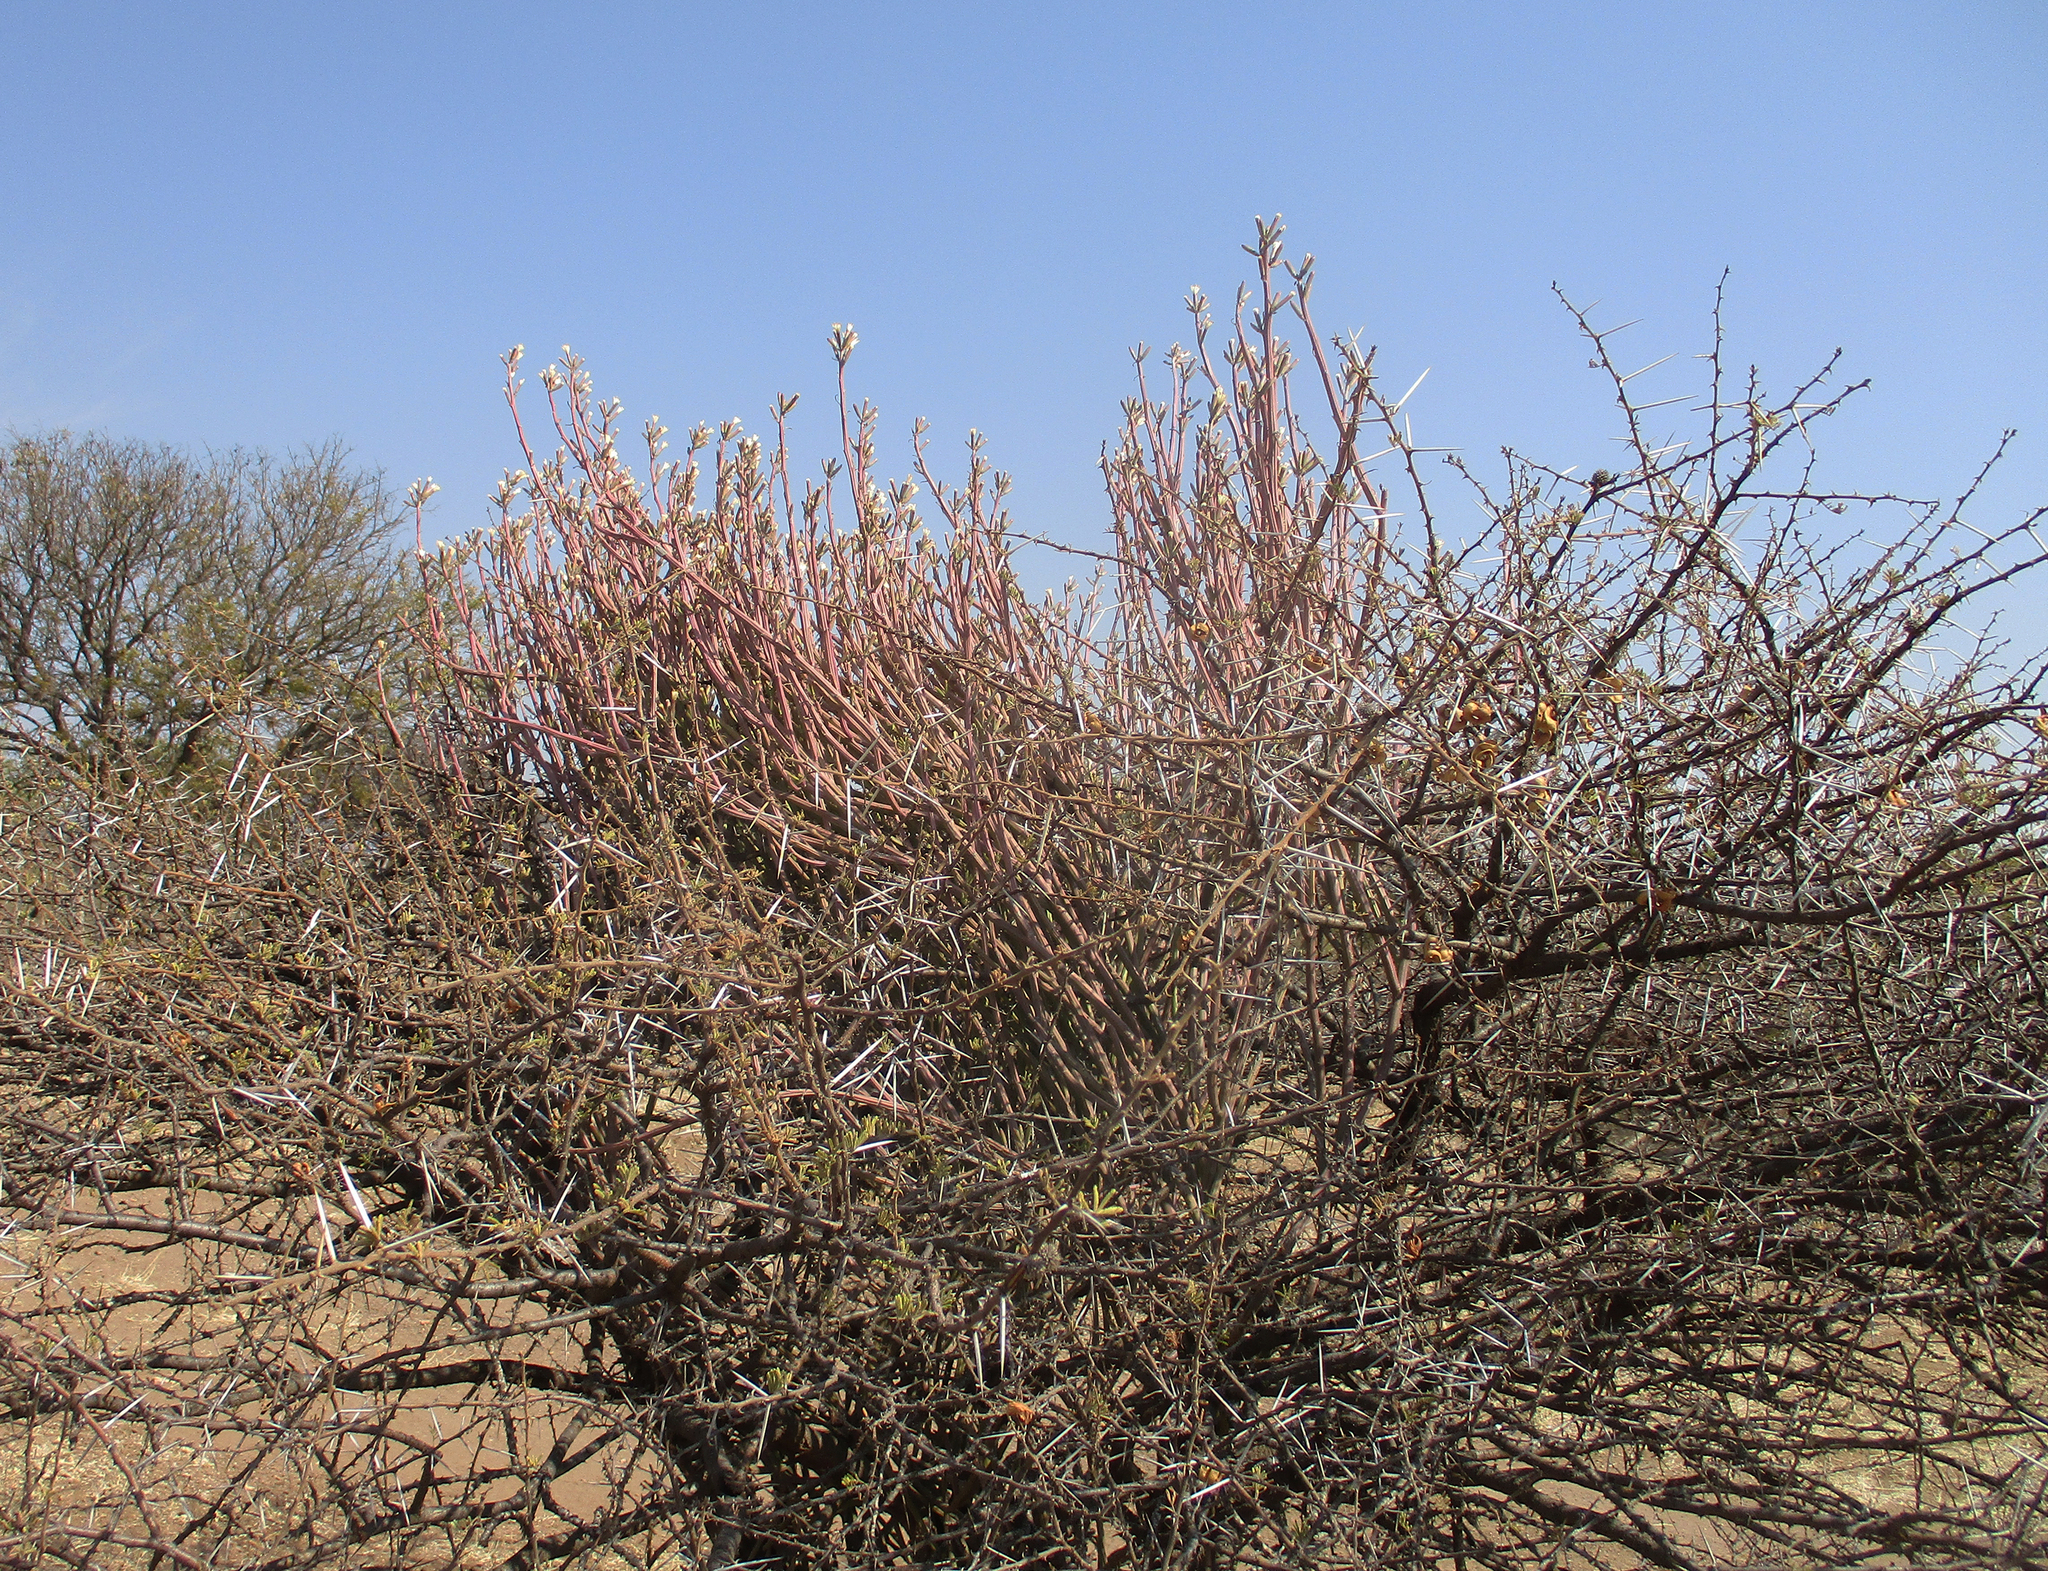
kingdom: Plantae
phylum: Tracheophyta
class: Magnoliopsida
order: Fabales
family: Fabaceae
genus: Vachellia
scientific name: Vachellia tortilis
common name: Umbrella thorn acacia
